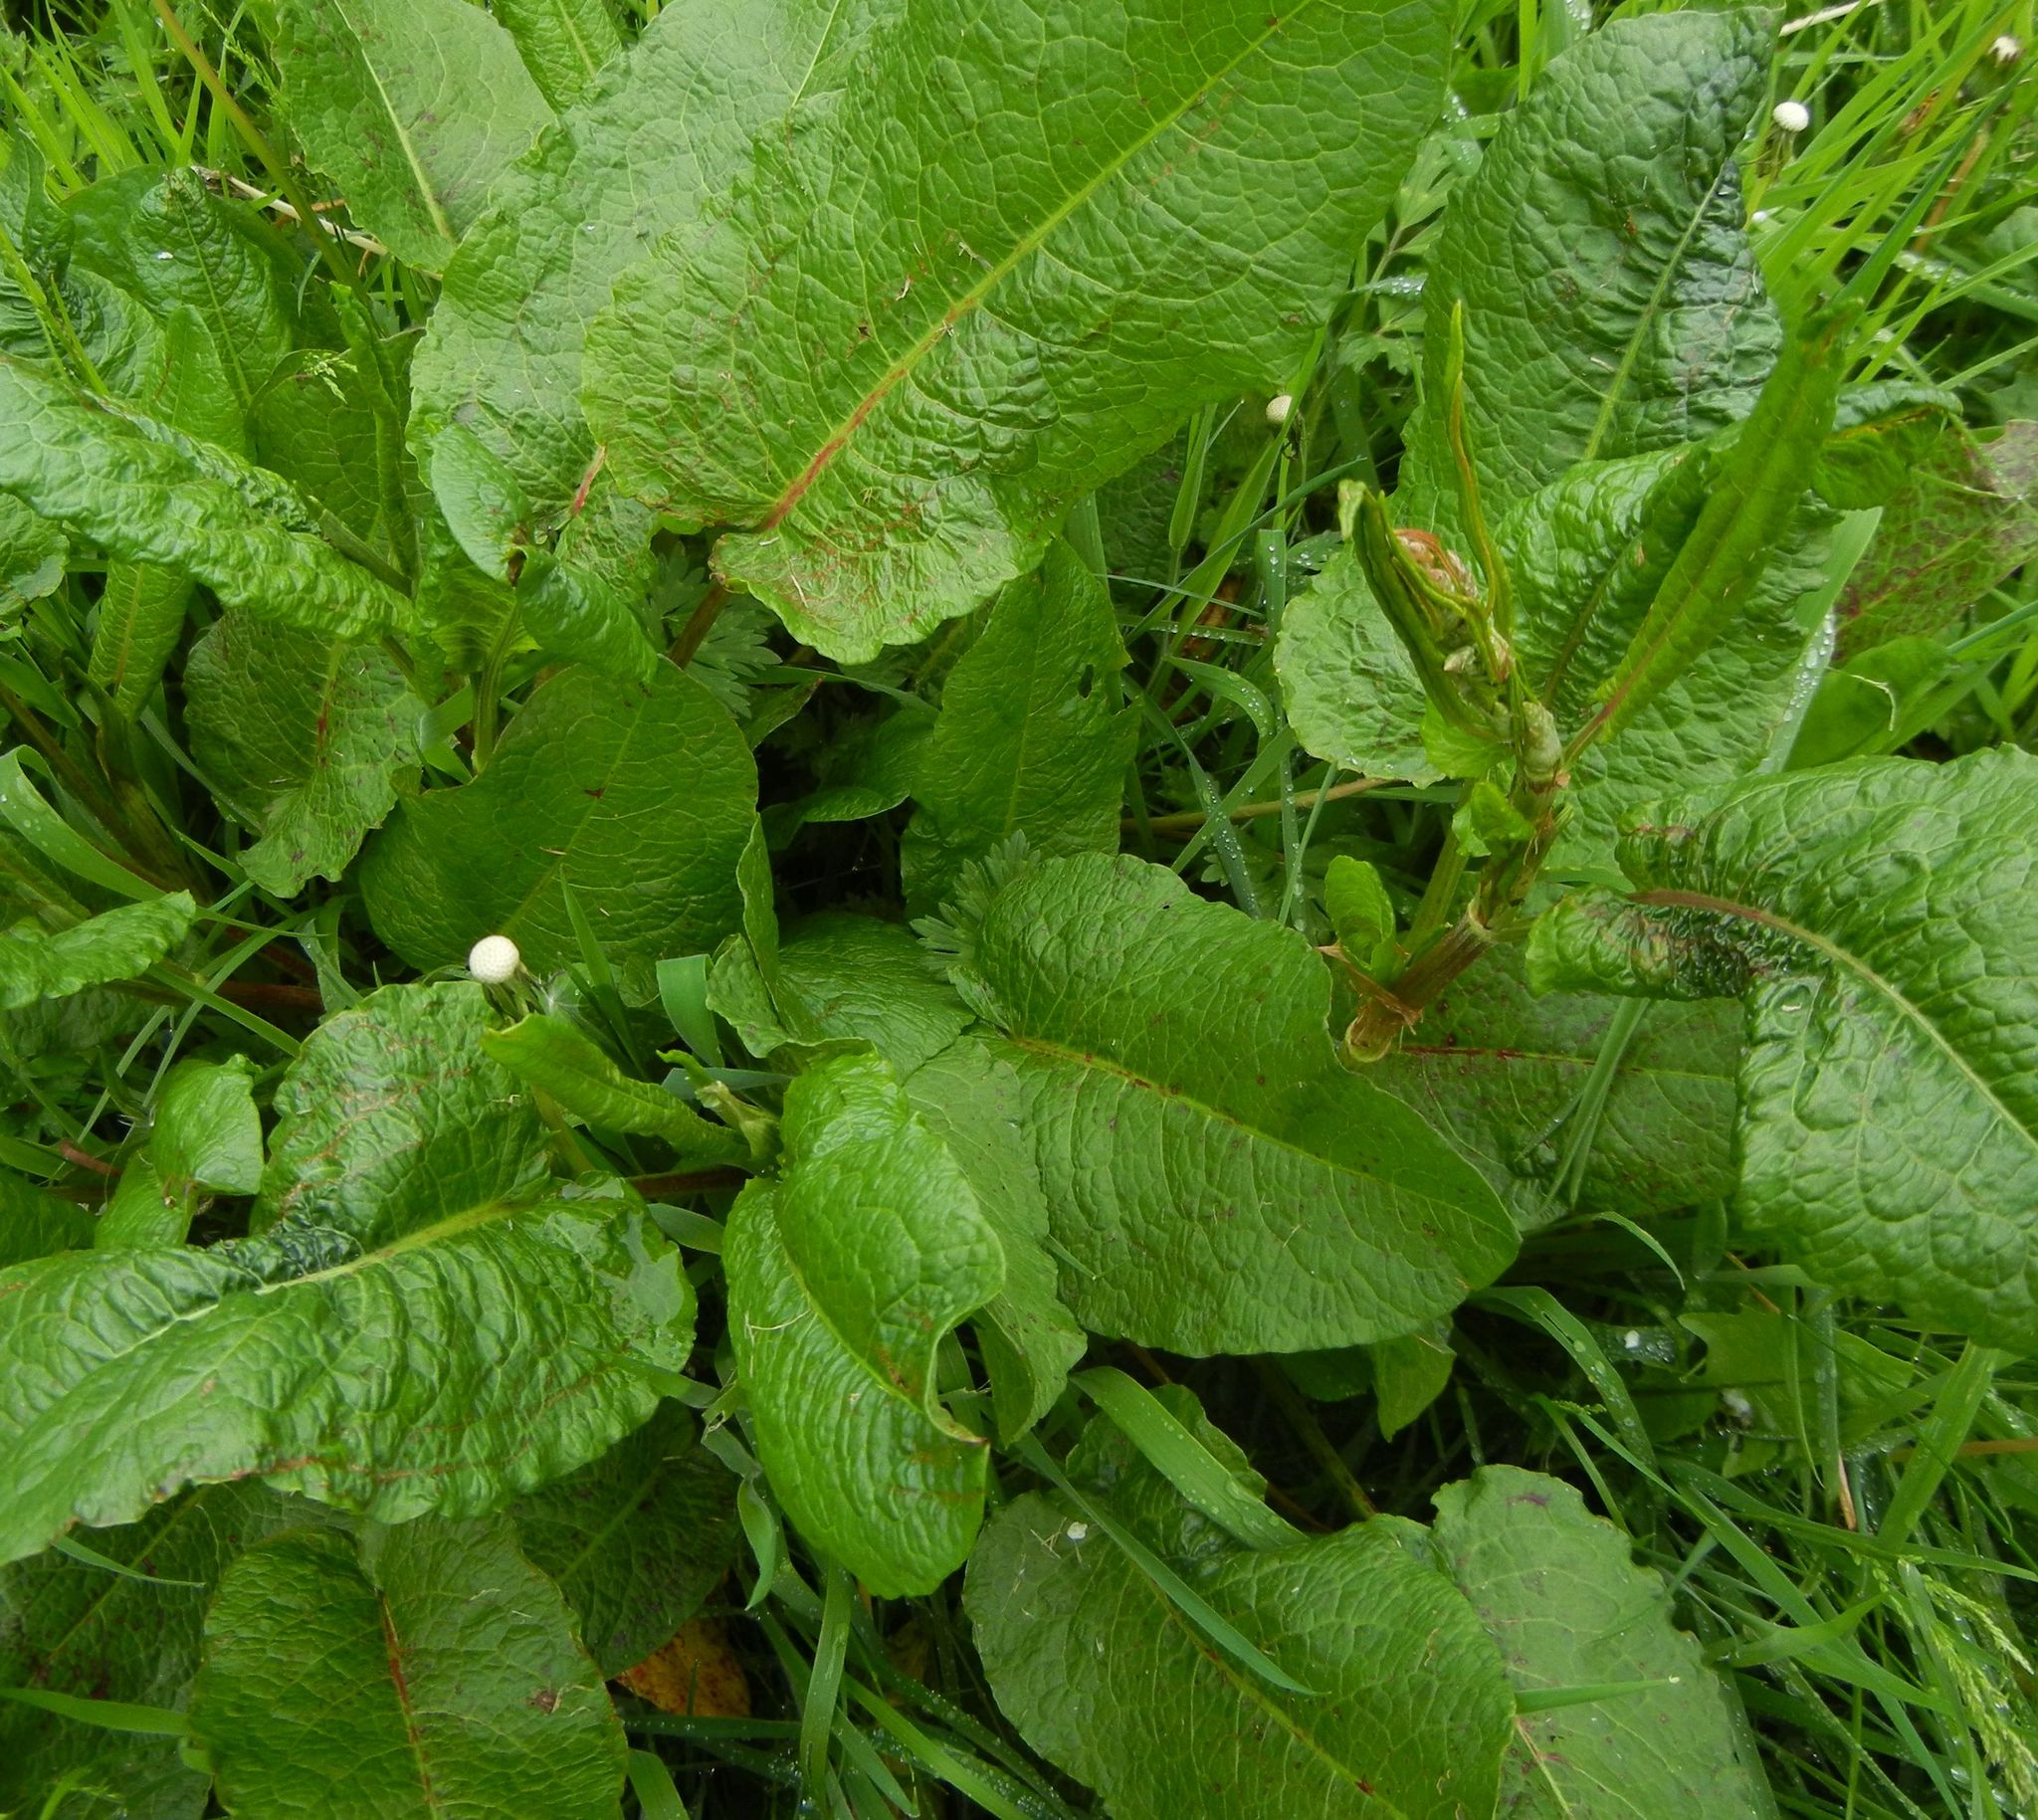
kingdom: Plantae
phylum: Tracheophyta
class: Magnoliopsida
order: Caryophyllales
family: Polygonaceae
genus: Rumex
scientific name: Rumex obtusifolius
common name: Bitter dock
